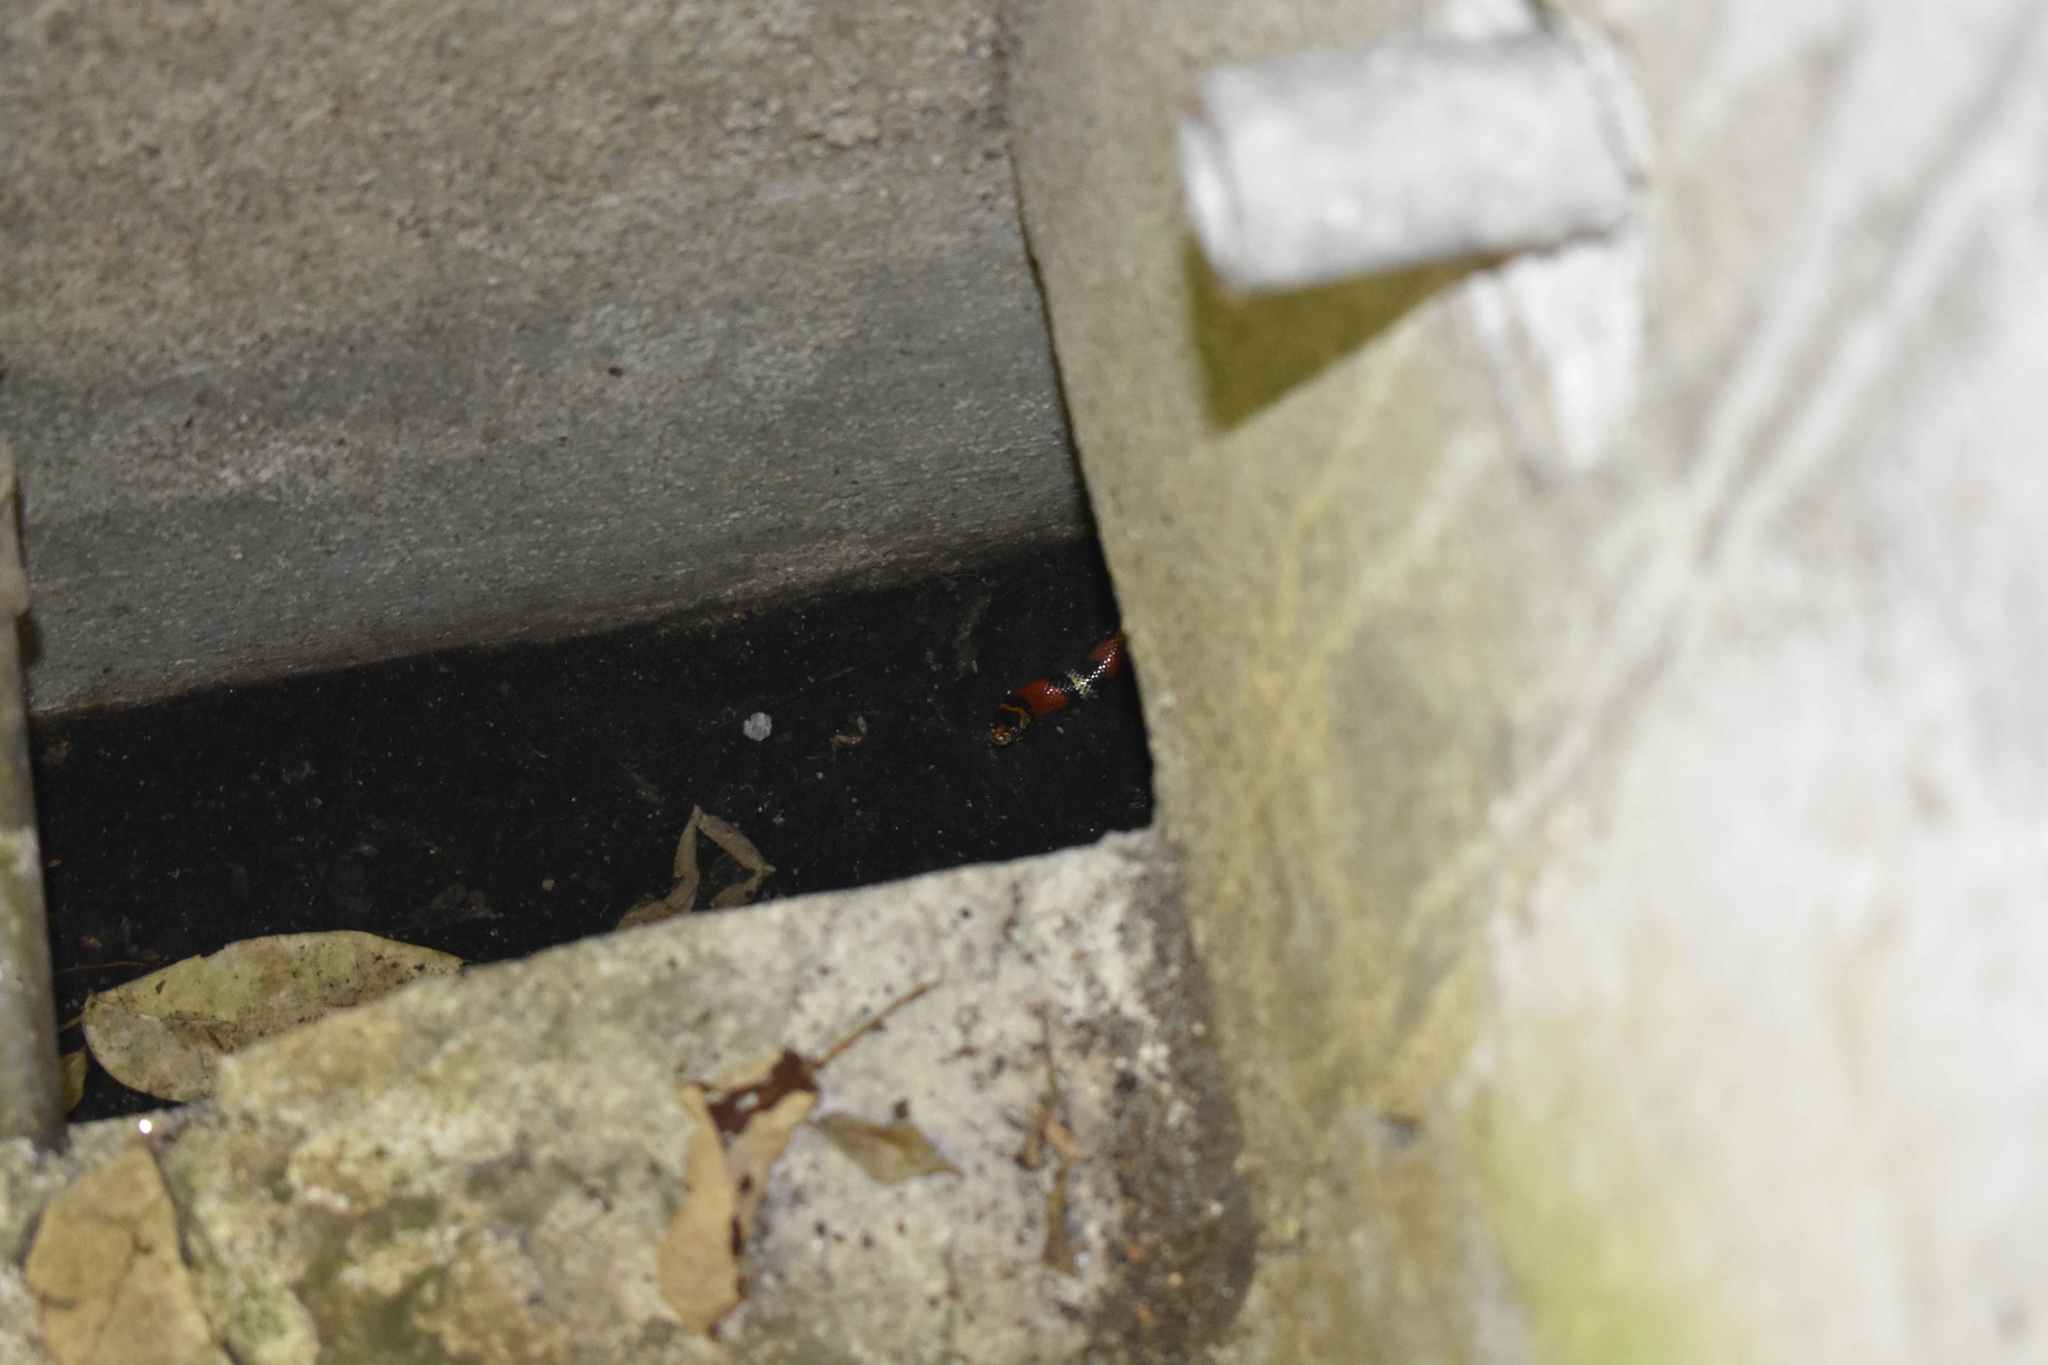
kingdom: Animalia
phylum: Chordata
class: Squamata
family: Colubridae
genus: Lampropeltis
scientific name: Lampropeltis polyzona
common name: Atlantic central american milksnake
